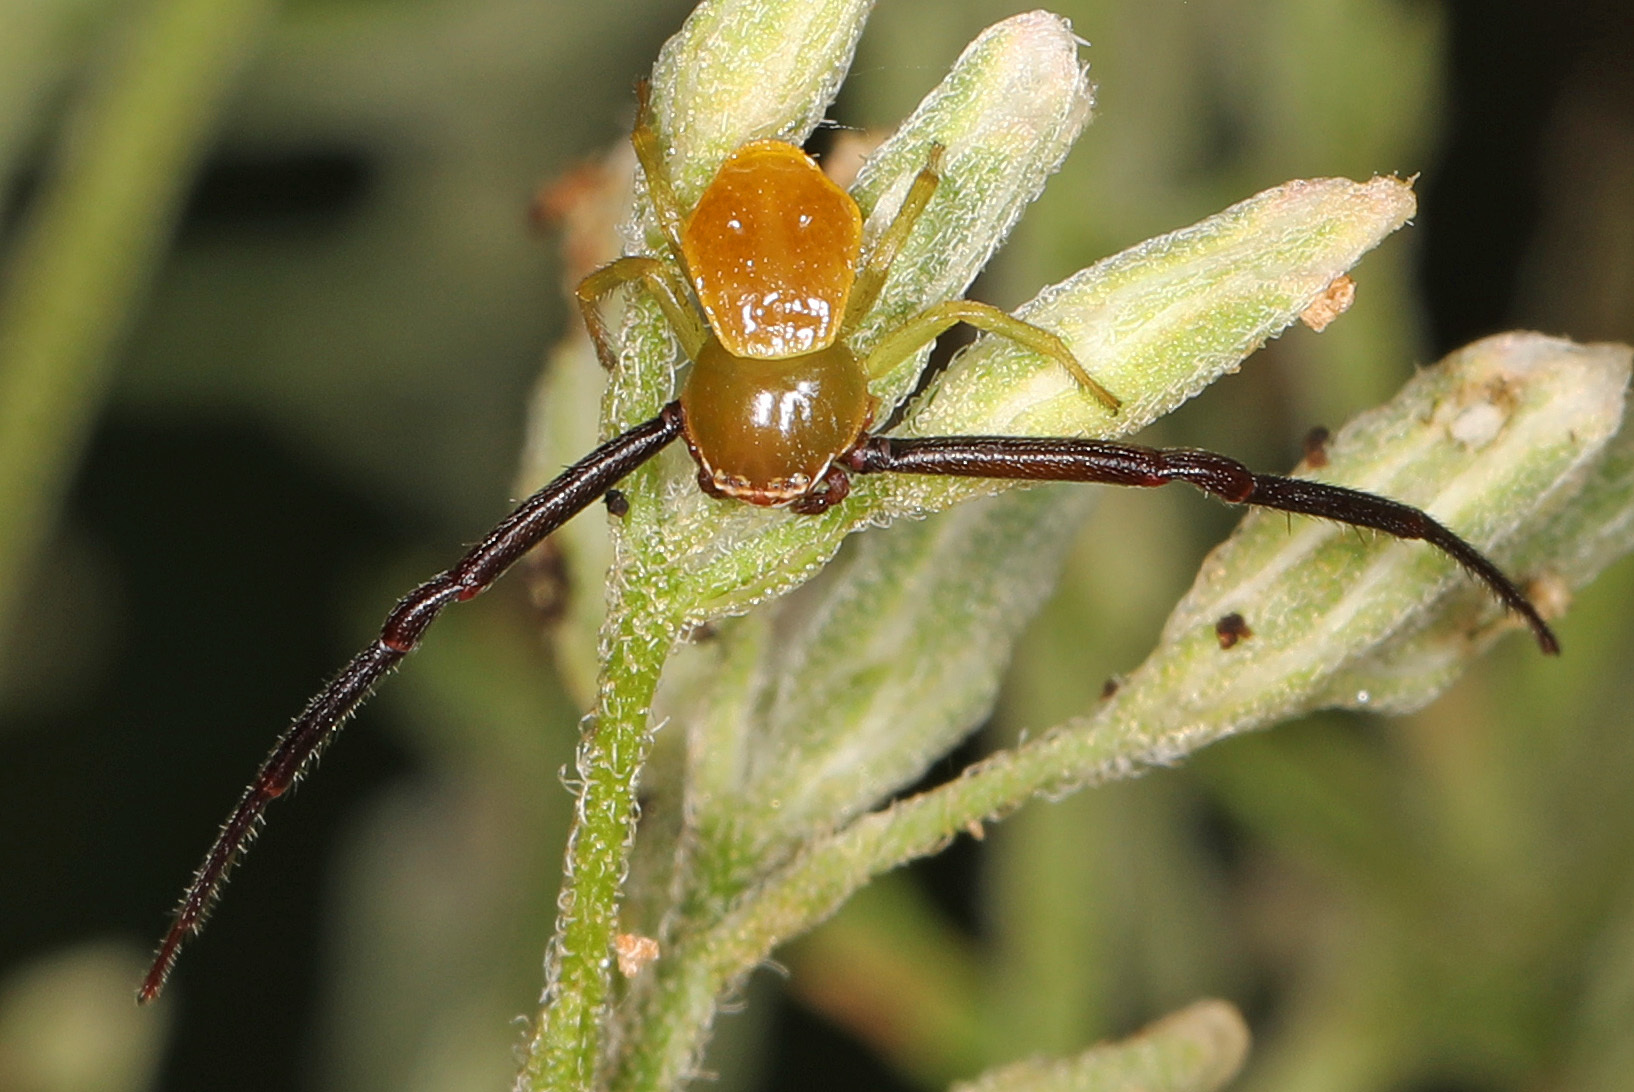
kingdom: Animalia
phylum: Arthropoda
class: Arachnida
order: Araneae
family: Thomisidae
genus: Misumenoides
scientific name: Misumenoides formosipes
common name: White-banded crab spider
